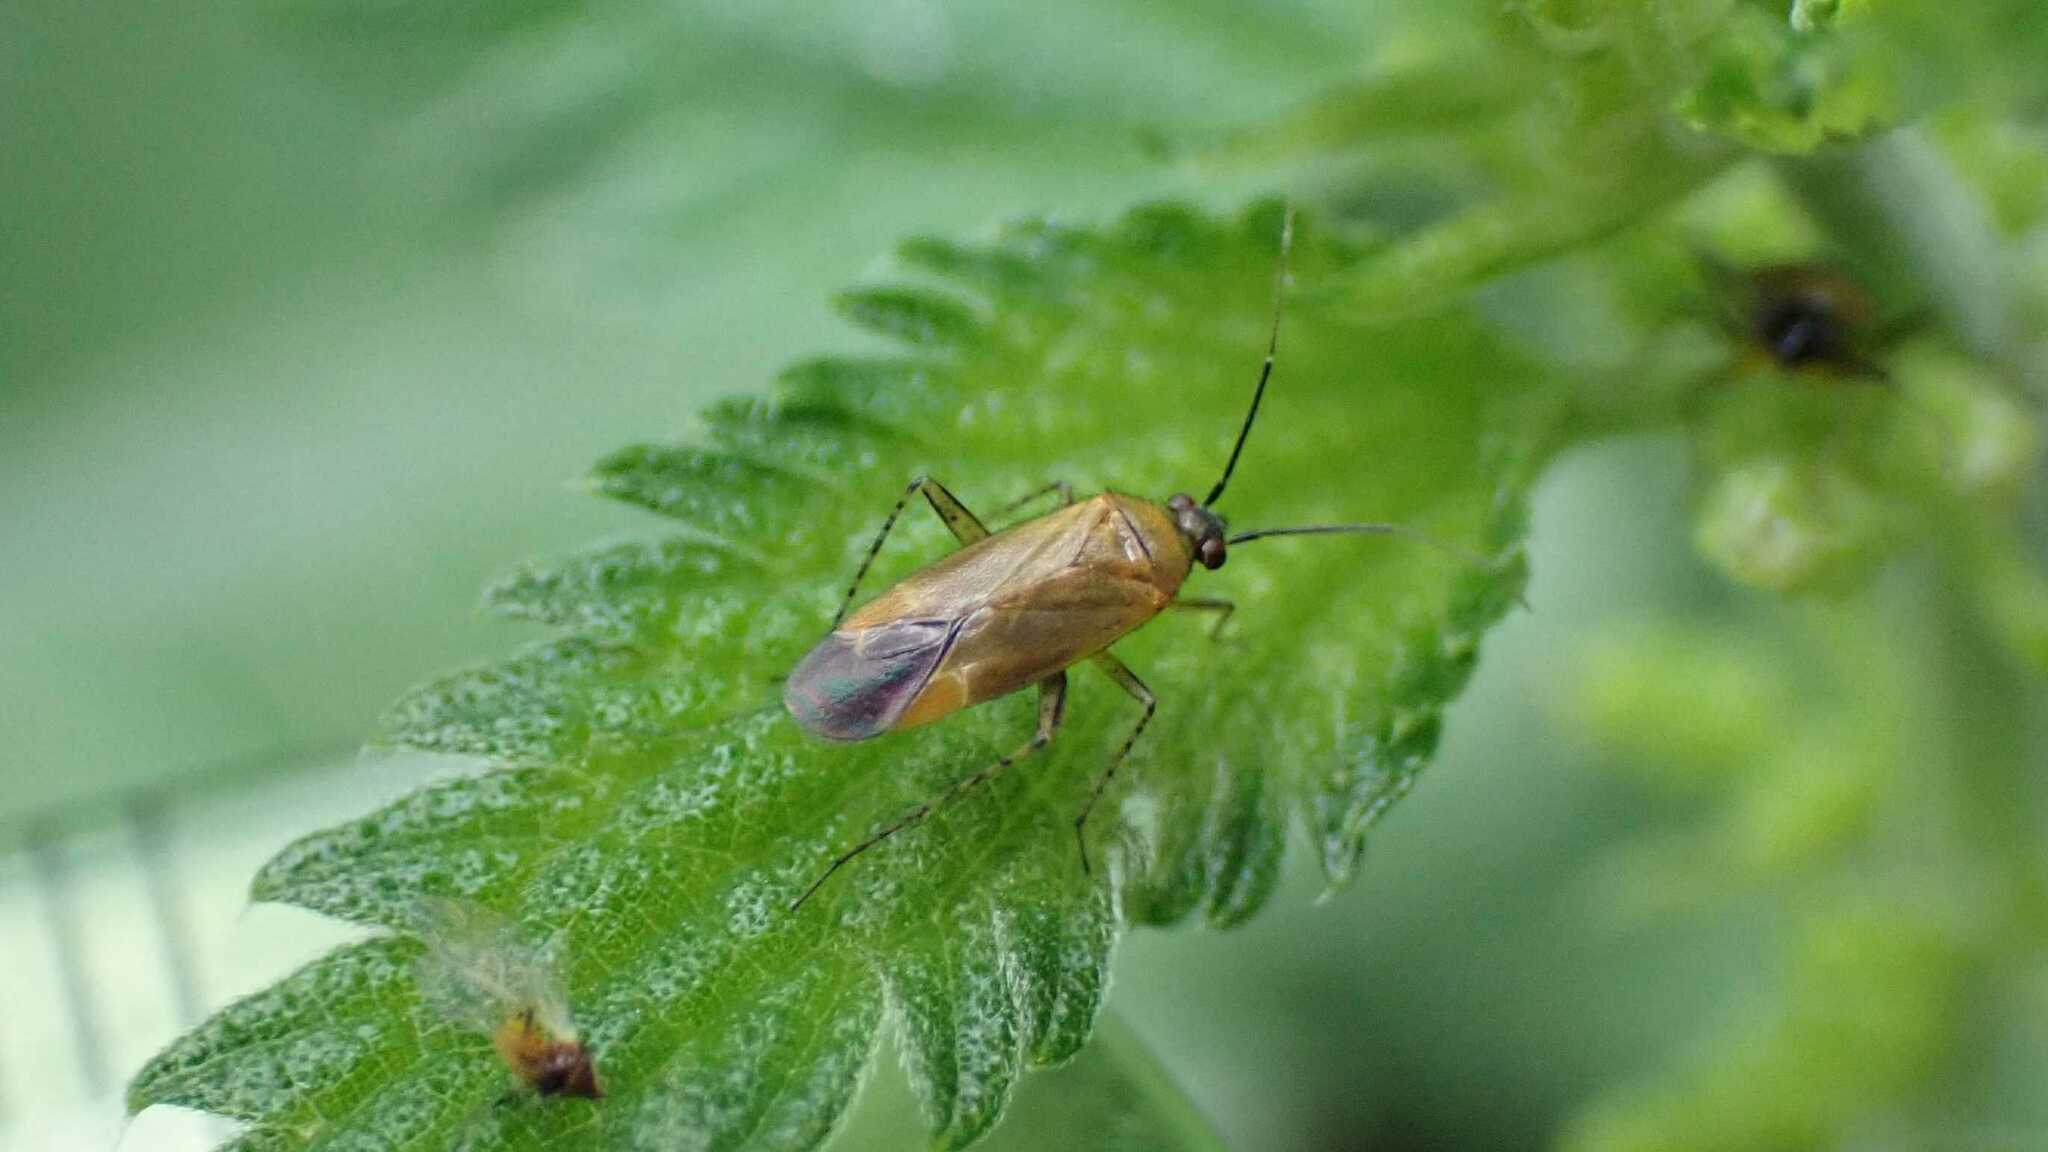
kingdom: Animalia
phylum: Arthropoda
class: Insecta
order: Hemiptera
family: Miridae
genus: Plagiognathus
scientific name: Plagiognathus arbustorum
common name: Plant bug
